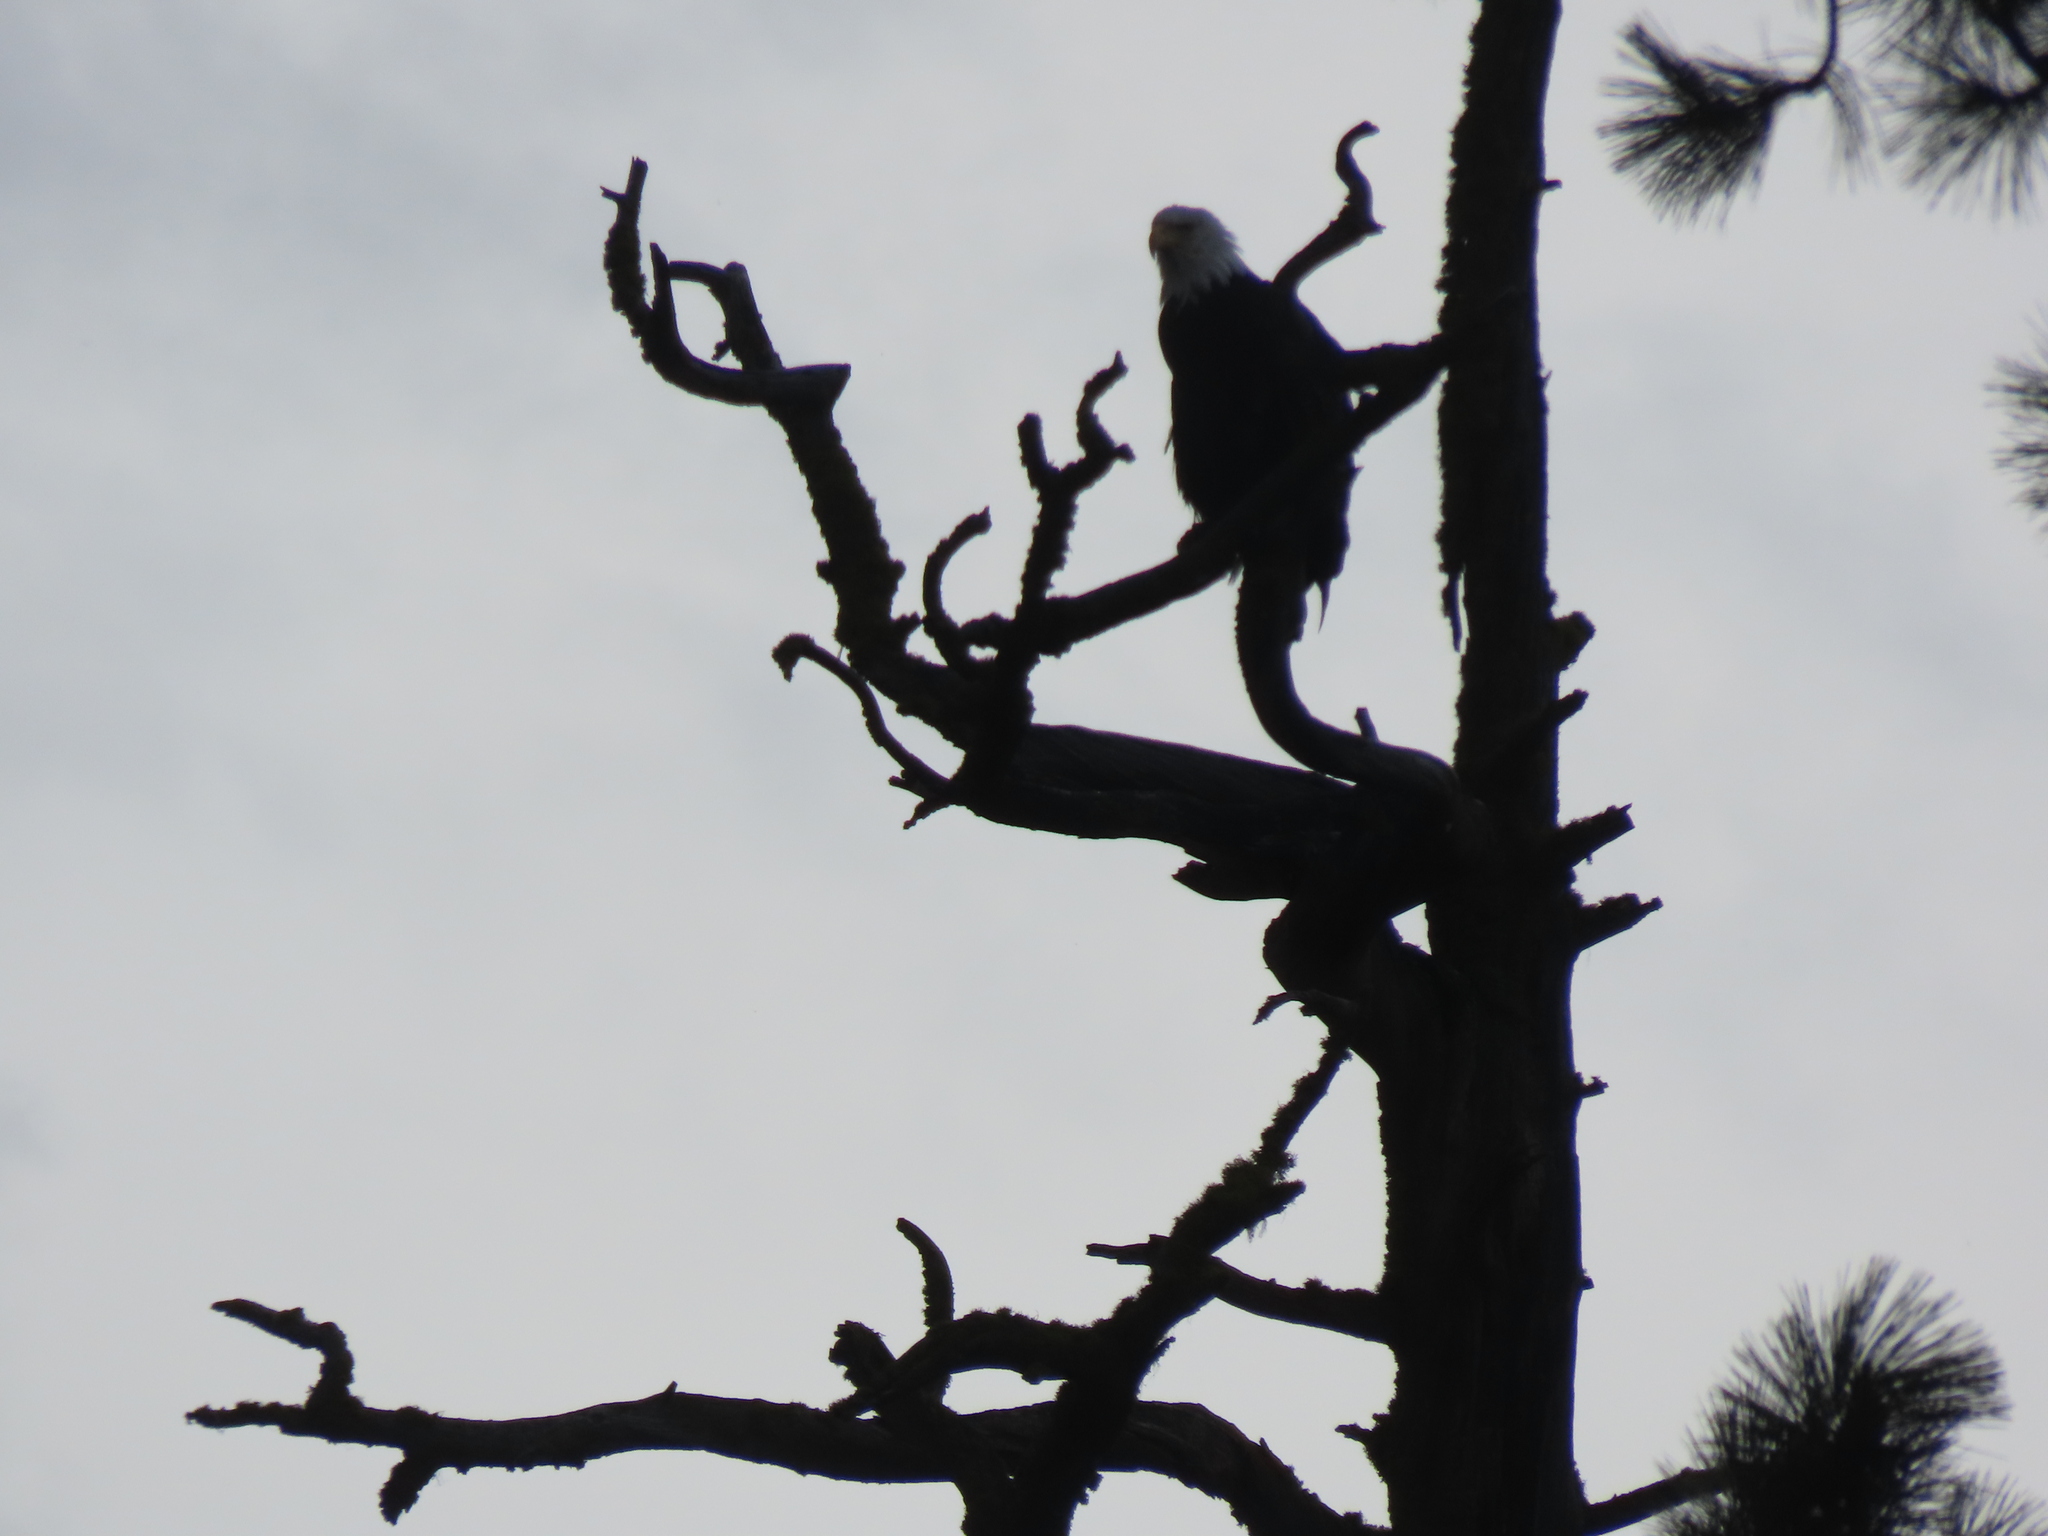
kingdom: Animalia
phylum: Chordata
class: Aves
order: Accipitriformes
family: Accipitridae
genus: Haliaeetus
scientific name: Haliaeetus leucocephalus
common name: Bald eagle
